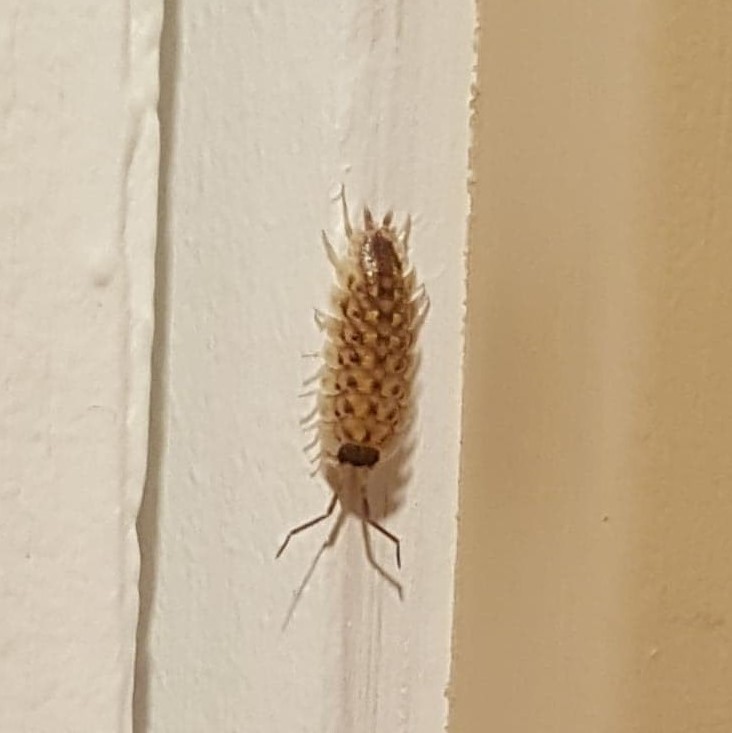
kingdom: Animalia
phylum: Arthropoda
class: Malacostraca
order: Isopoda
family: Porcellionidae
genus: Porcellio
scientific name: Porcellio spinicornis
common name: Painted woodlouse
